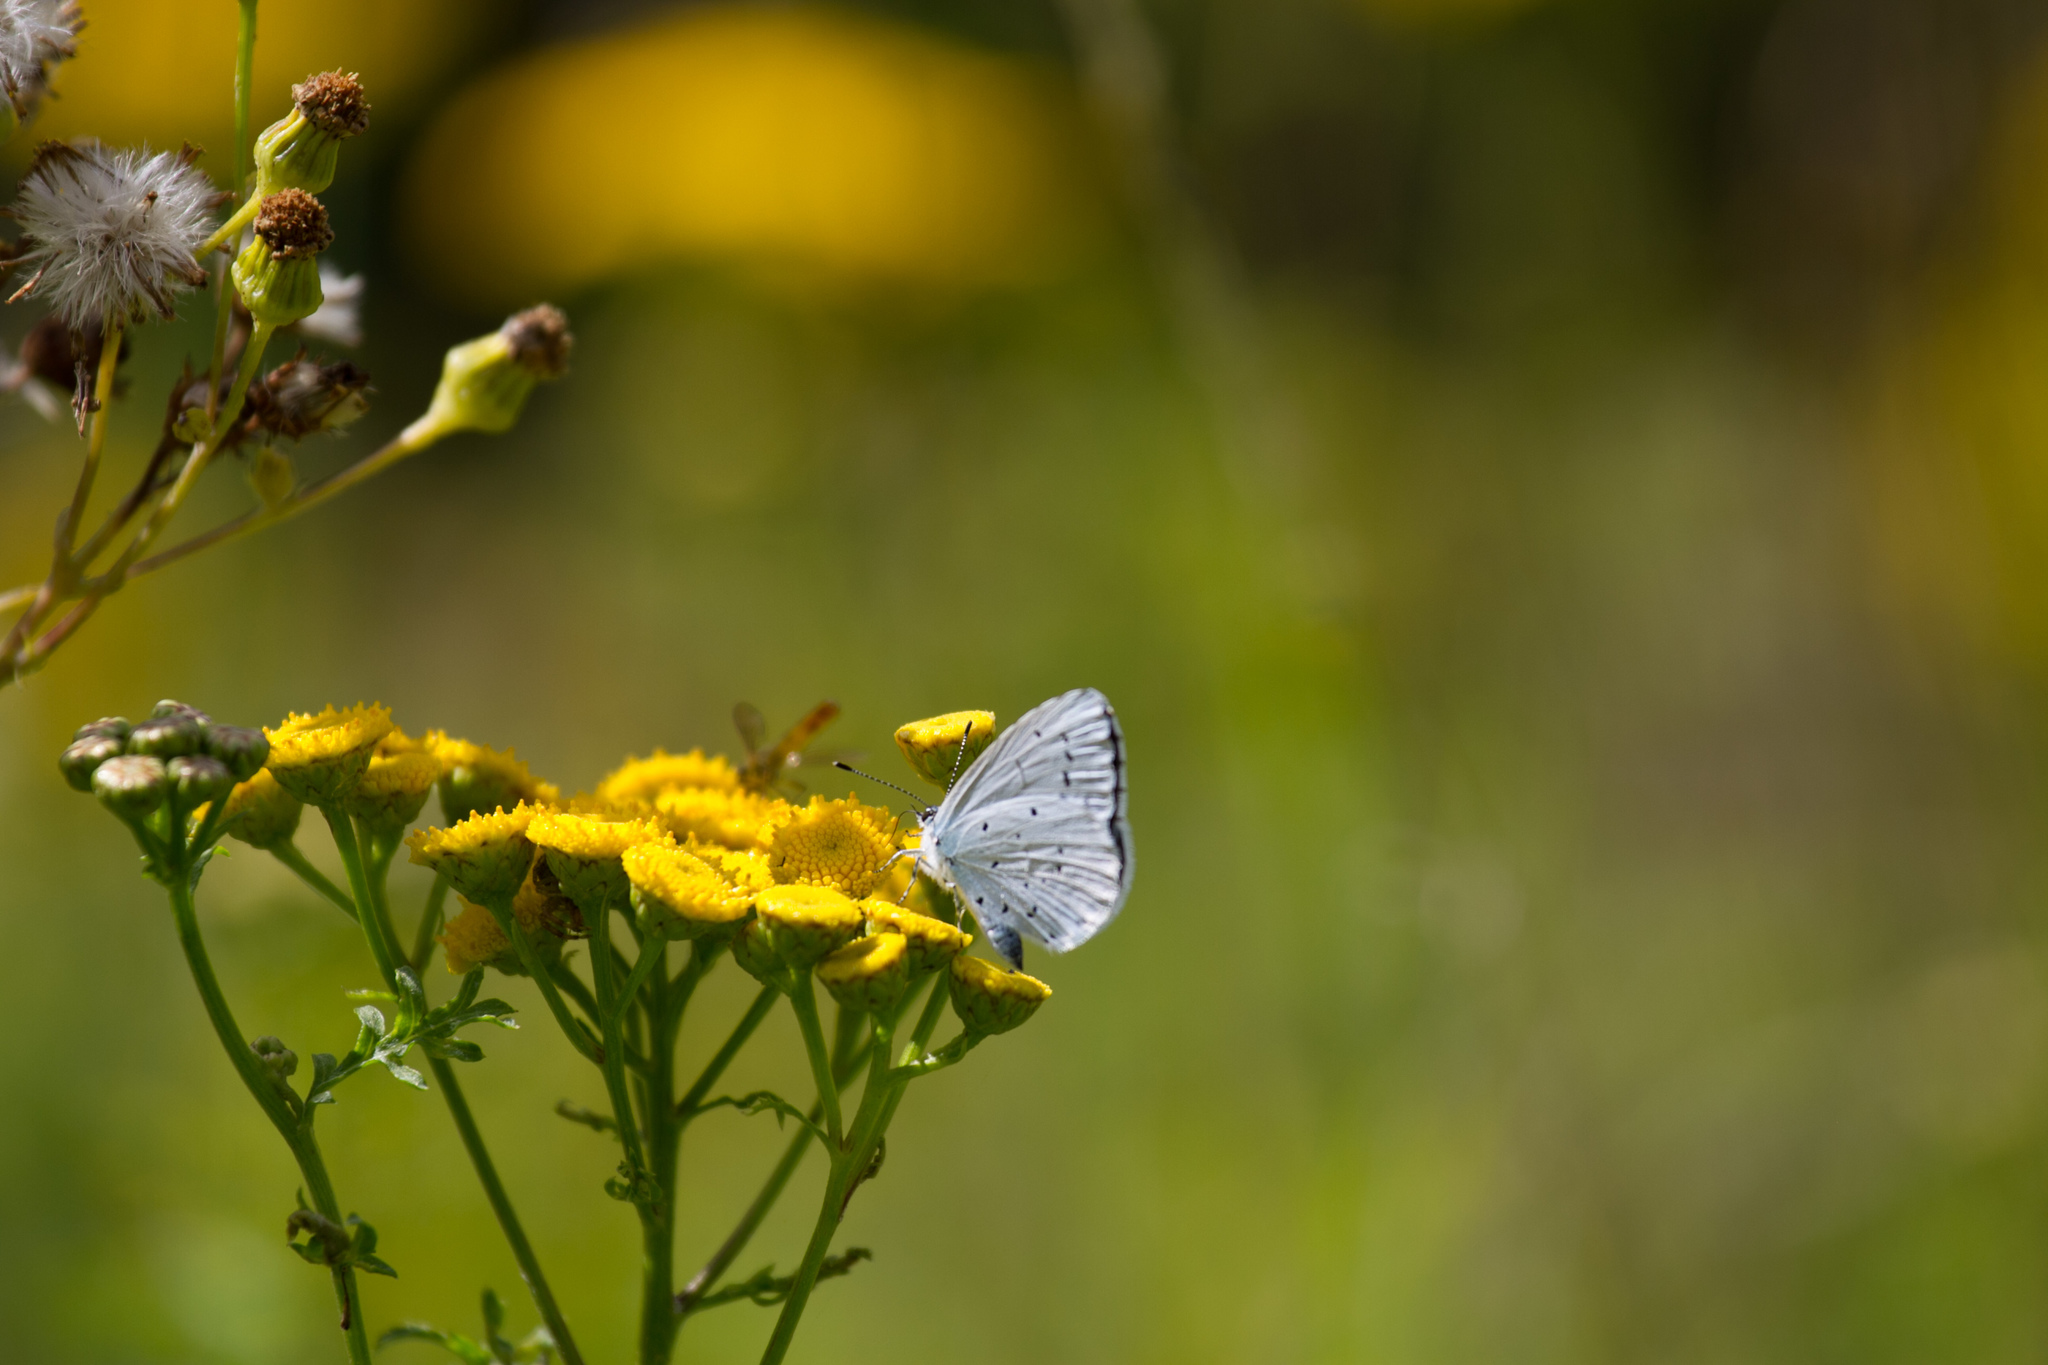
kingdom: Animalia
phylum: Arthropoda
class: Insecta
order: Lepidoptera
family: Lycaenidae
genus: Celastrina
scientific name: Celastrina argiolus
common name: Holly blue
